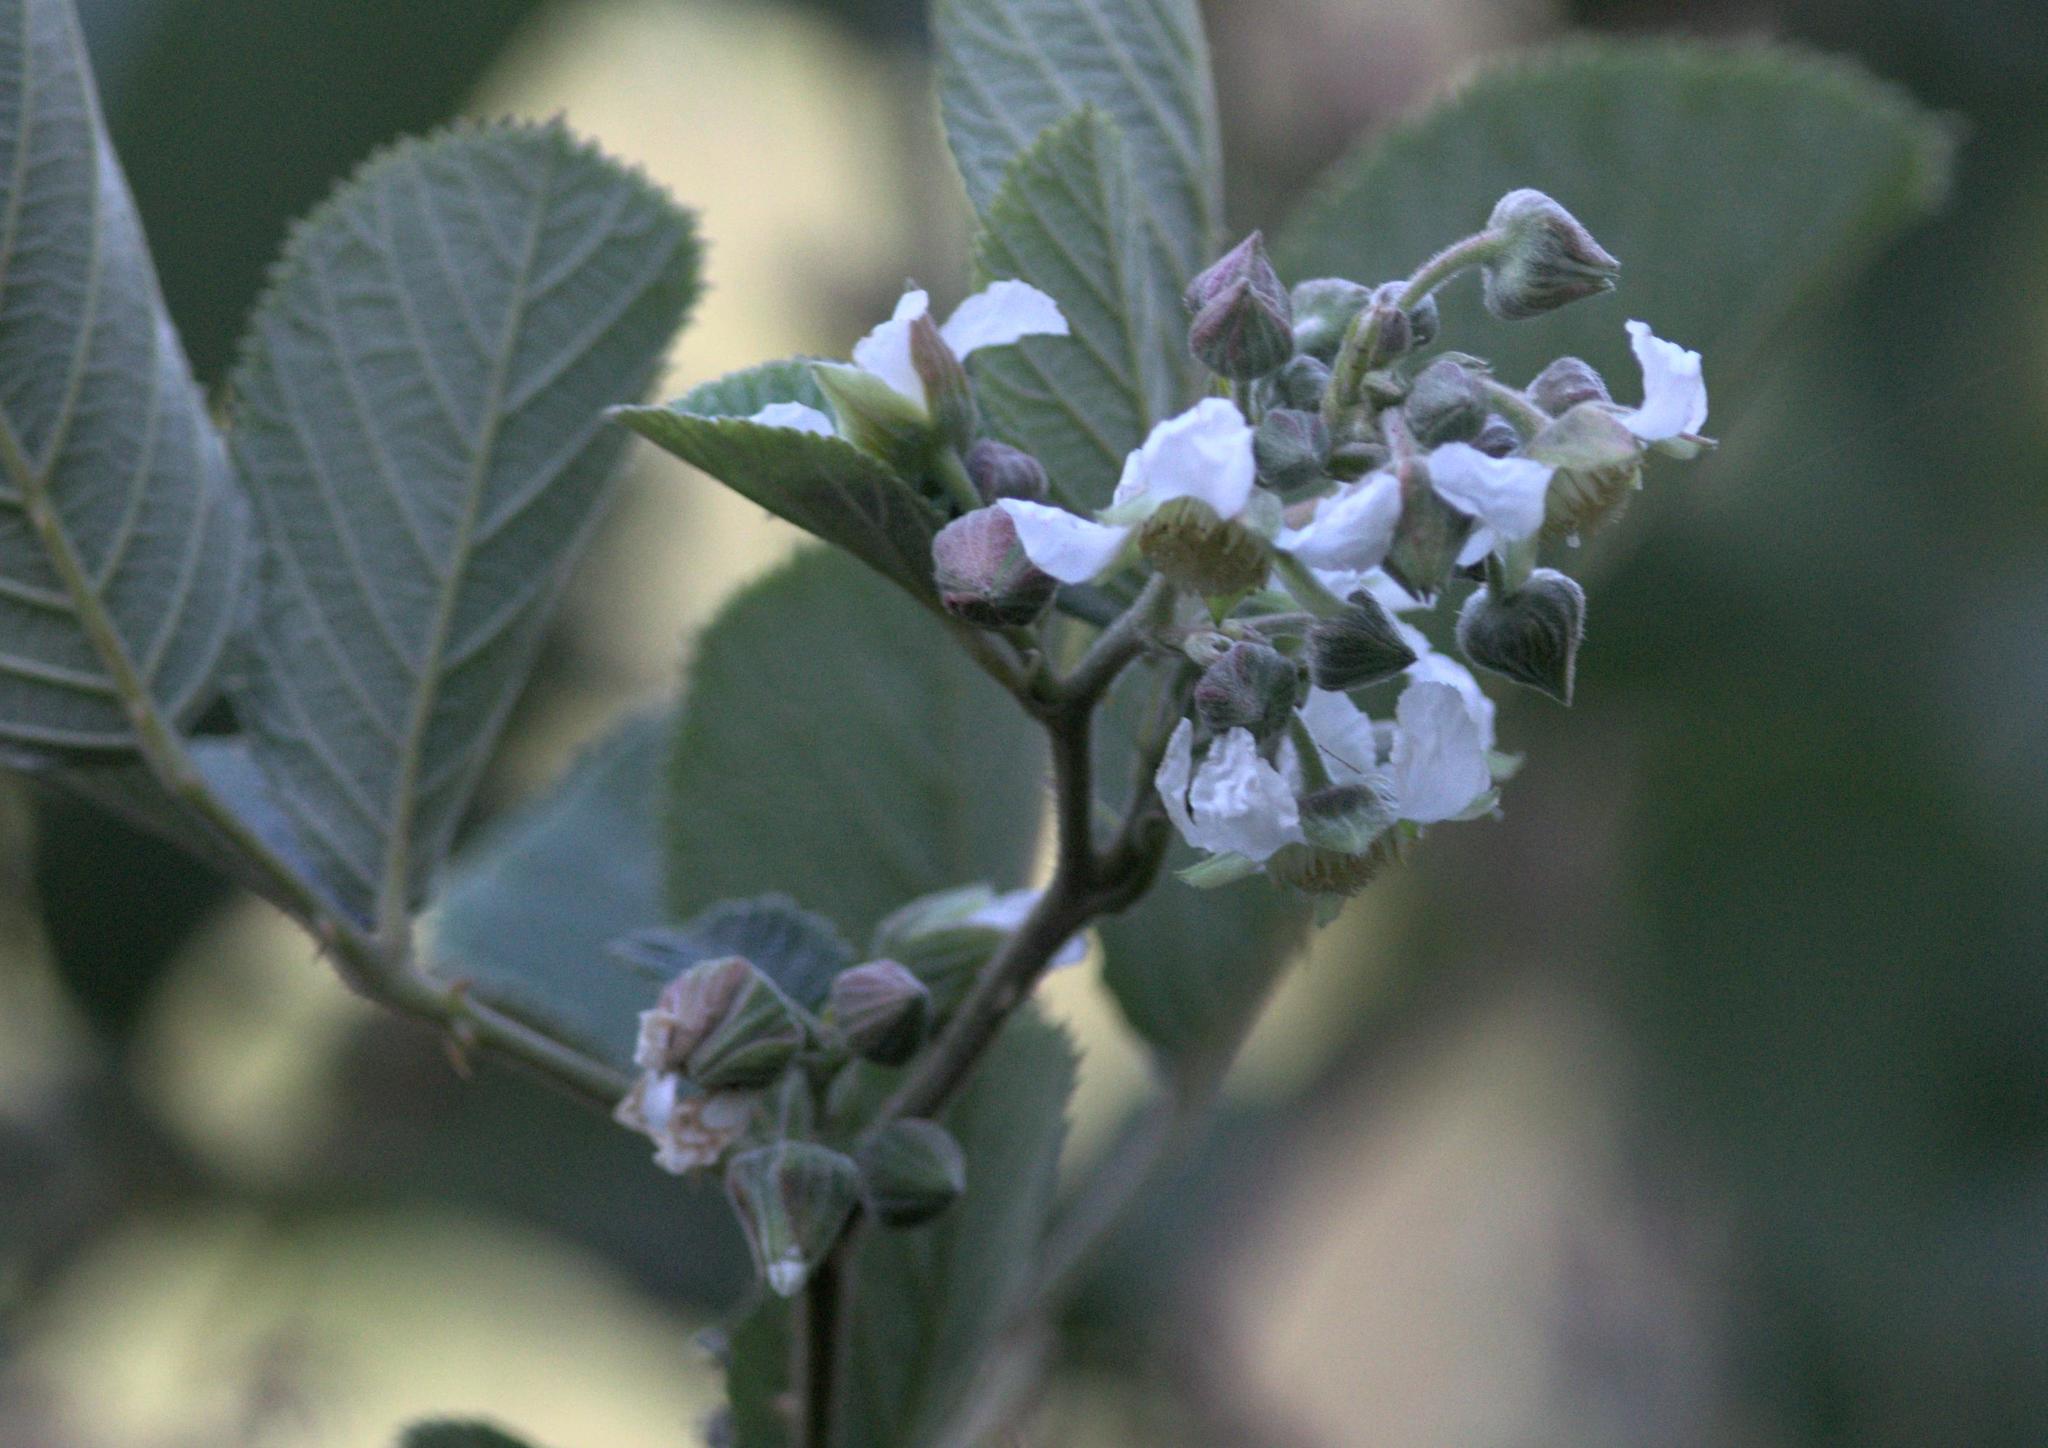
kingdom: Plantae
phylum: Tracheophyta
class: Magnoliopsida
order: Rosales
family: Rosaceae
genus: Rubus
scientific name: Rubus ellipticus
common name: Cheeseberry
